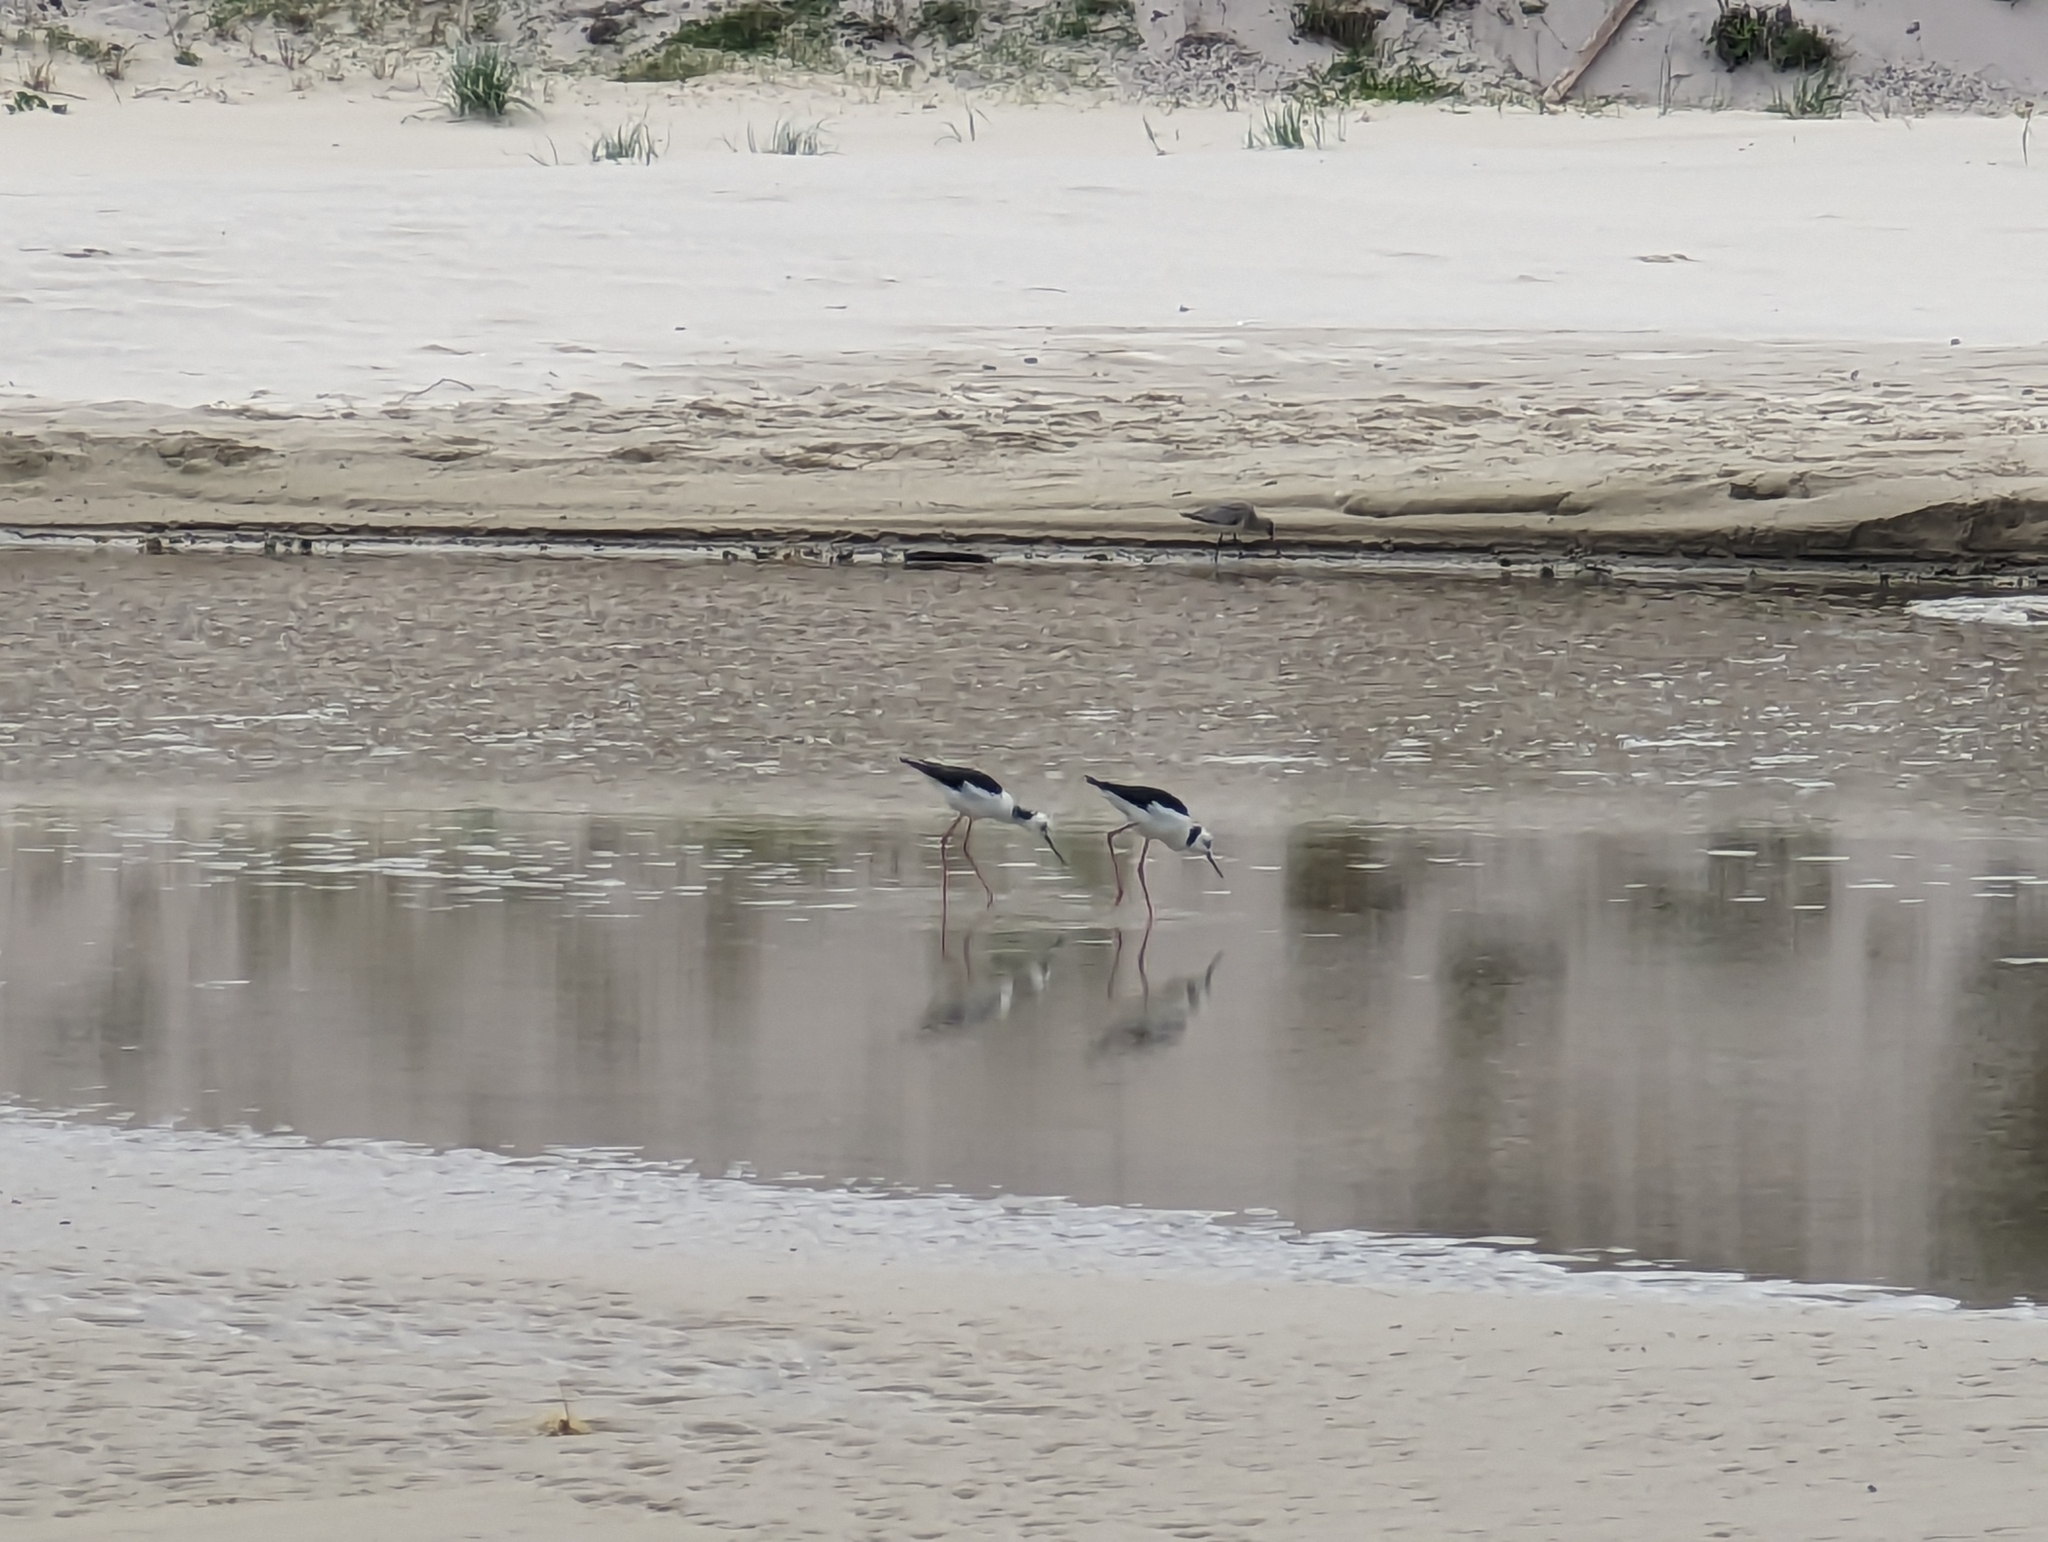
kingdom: Animalia
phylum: Chordata
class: Aves
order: Charadriiformes
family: Recurvirostridae
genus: Himantopus
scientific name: Himantopus leucocephalus
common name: White-headed stilt
